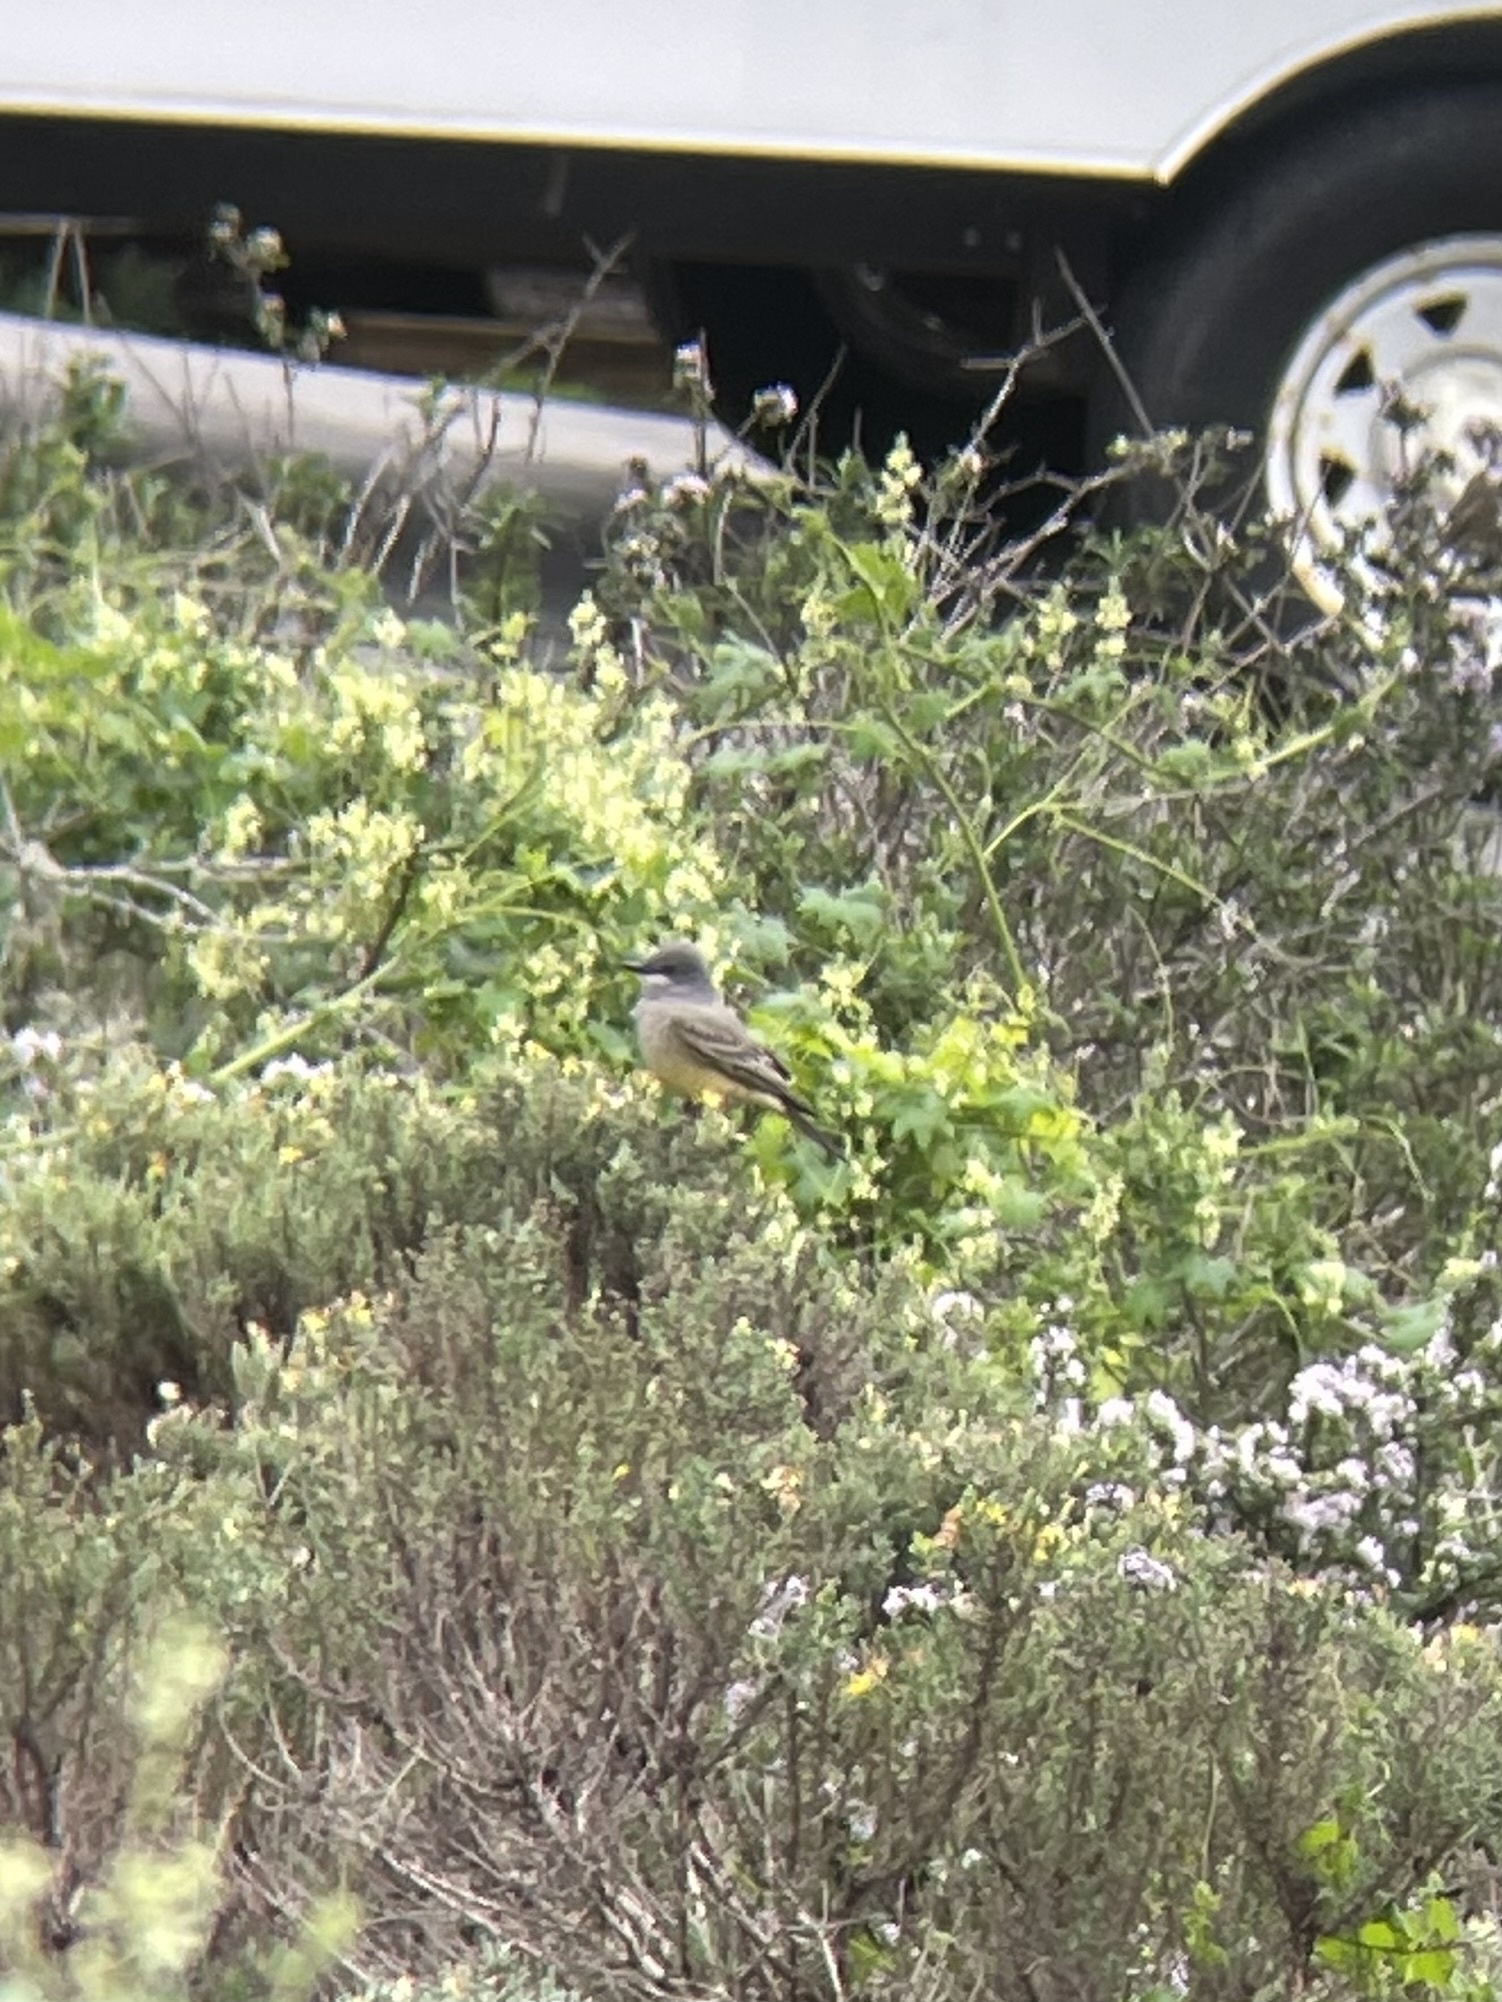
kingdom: Animalia
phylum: Chordata
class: Aves
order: Passeriformes
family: Tyrannidae
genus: Tyrannus
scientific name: Tyrannus vociferans
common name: Cassin's kingbird
